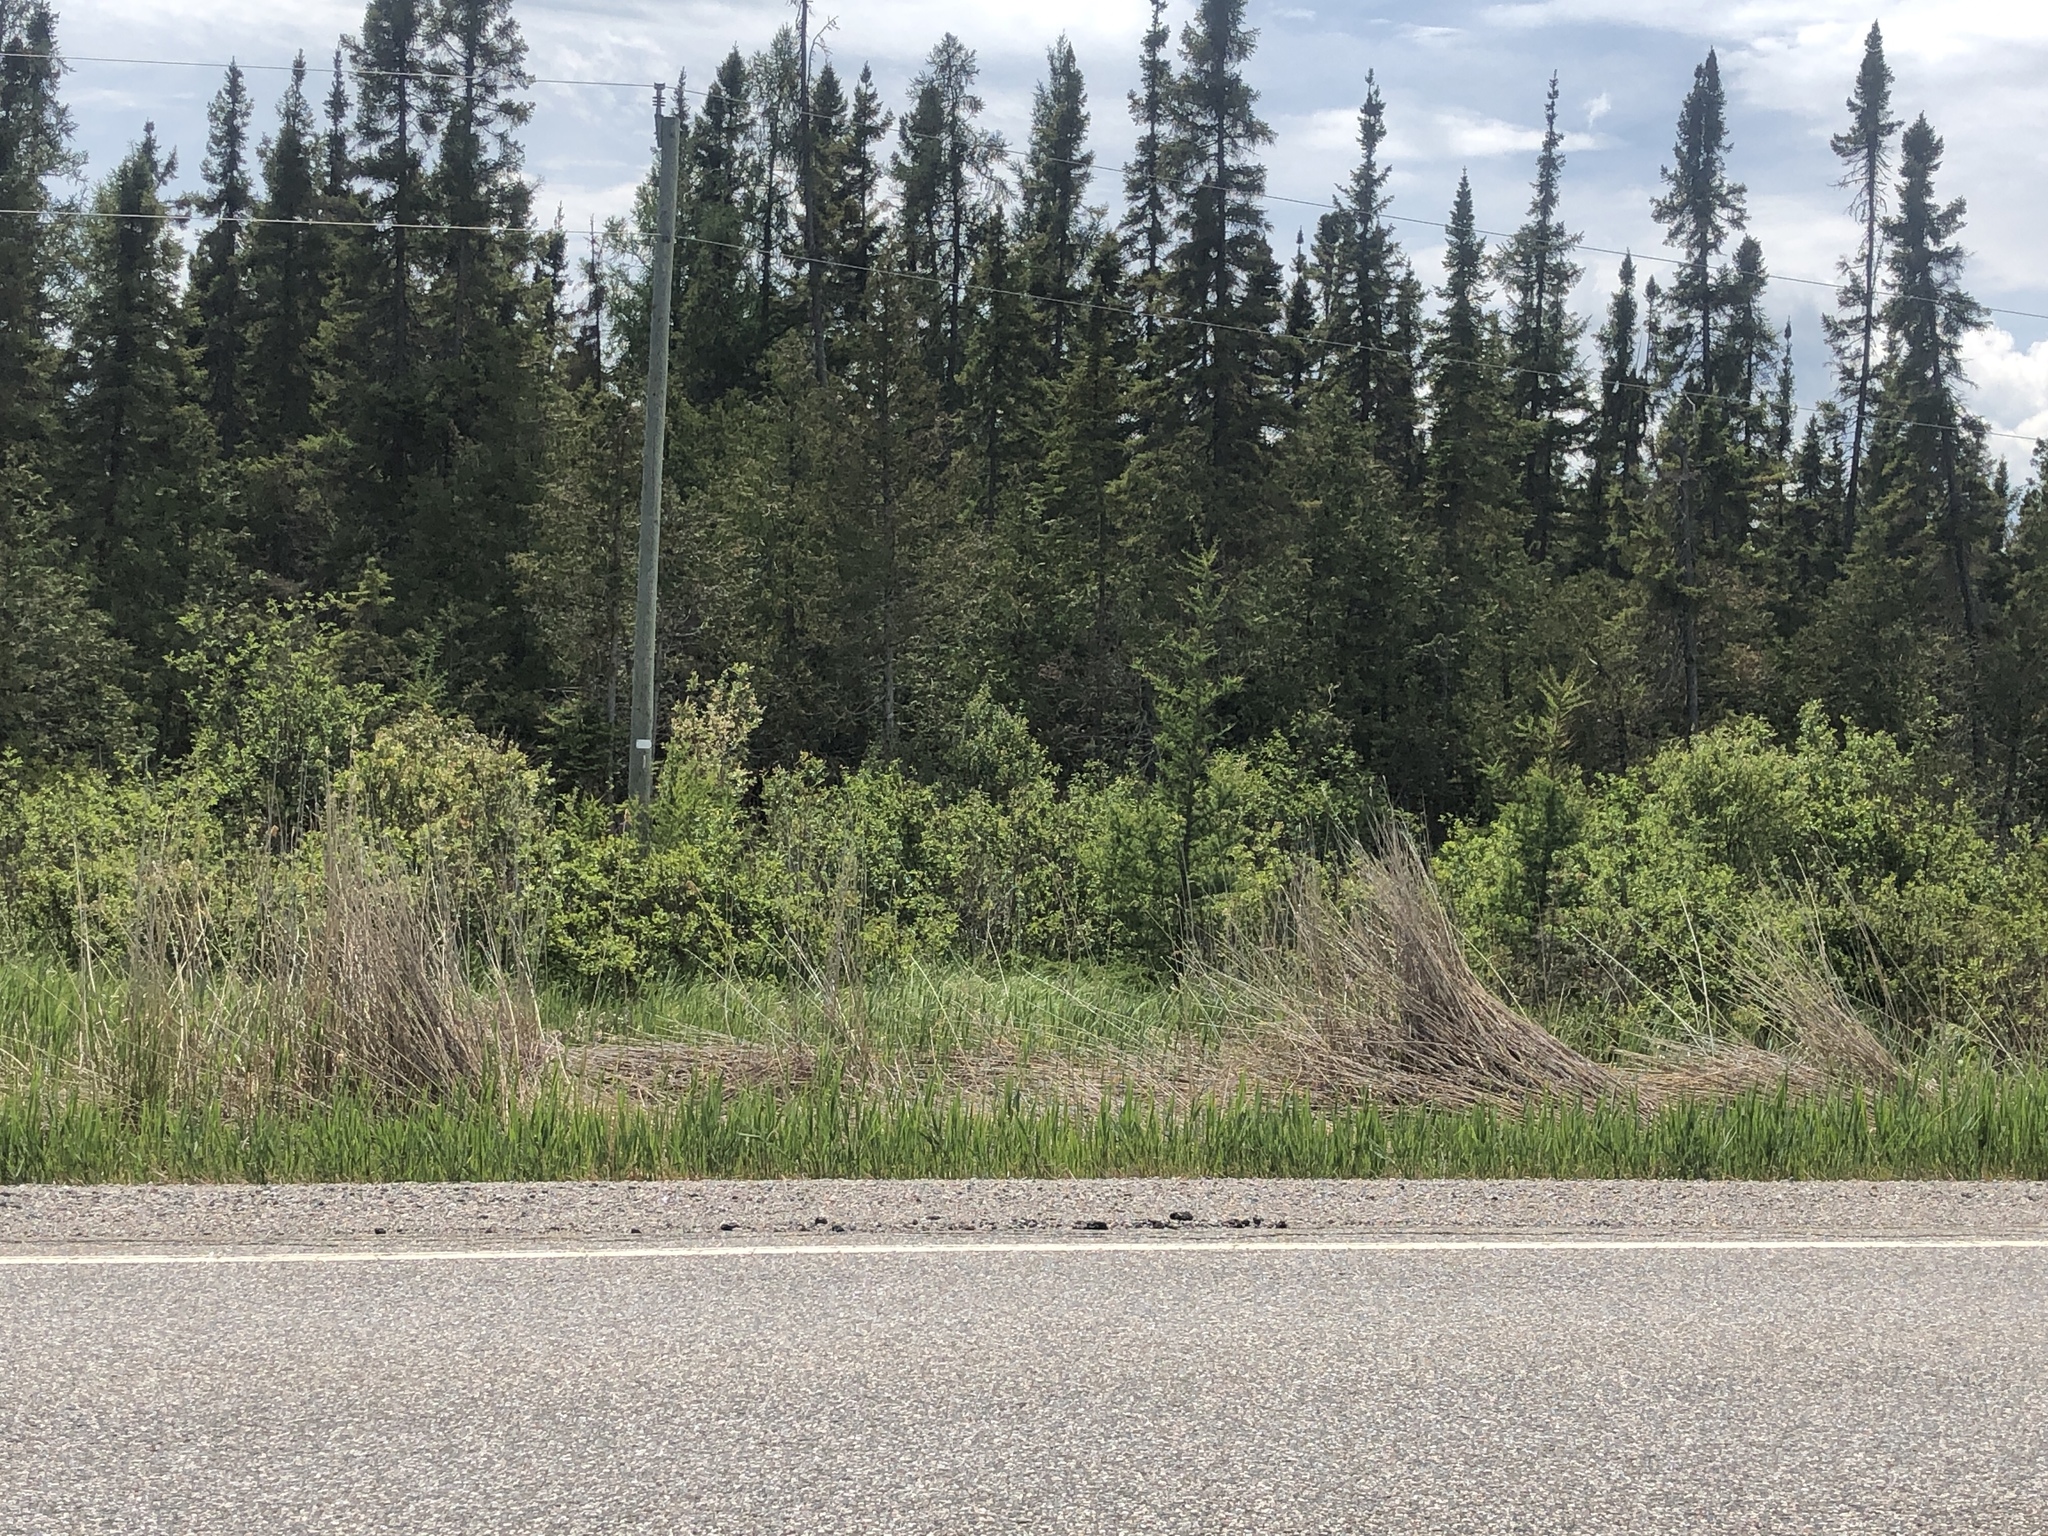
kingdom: Plantae
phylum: Tracheophyta
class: Liliopsida
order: Poales
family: Poaceae
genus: Phragmites
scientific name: Phragmites australis
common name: Common reed
